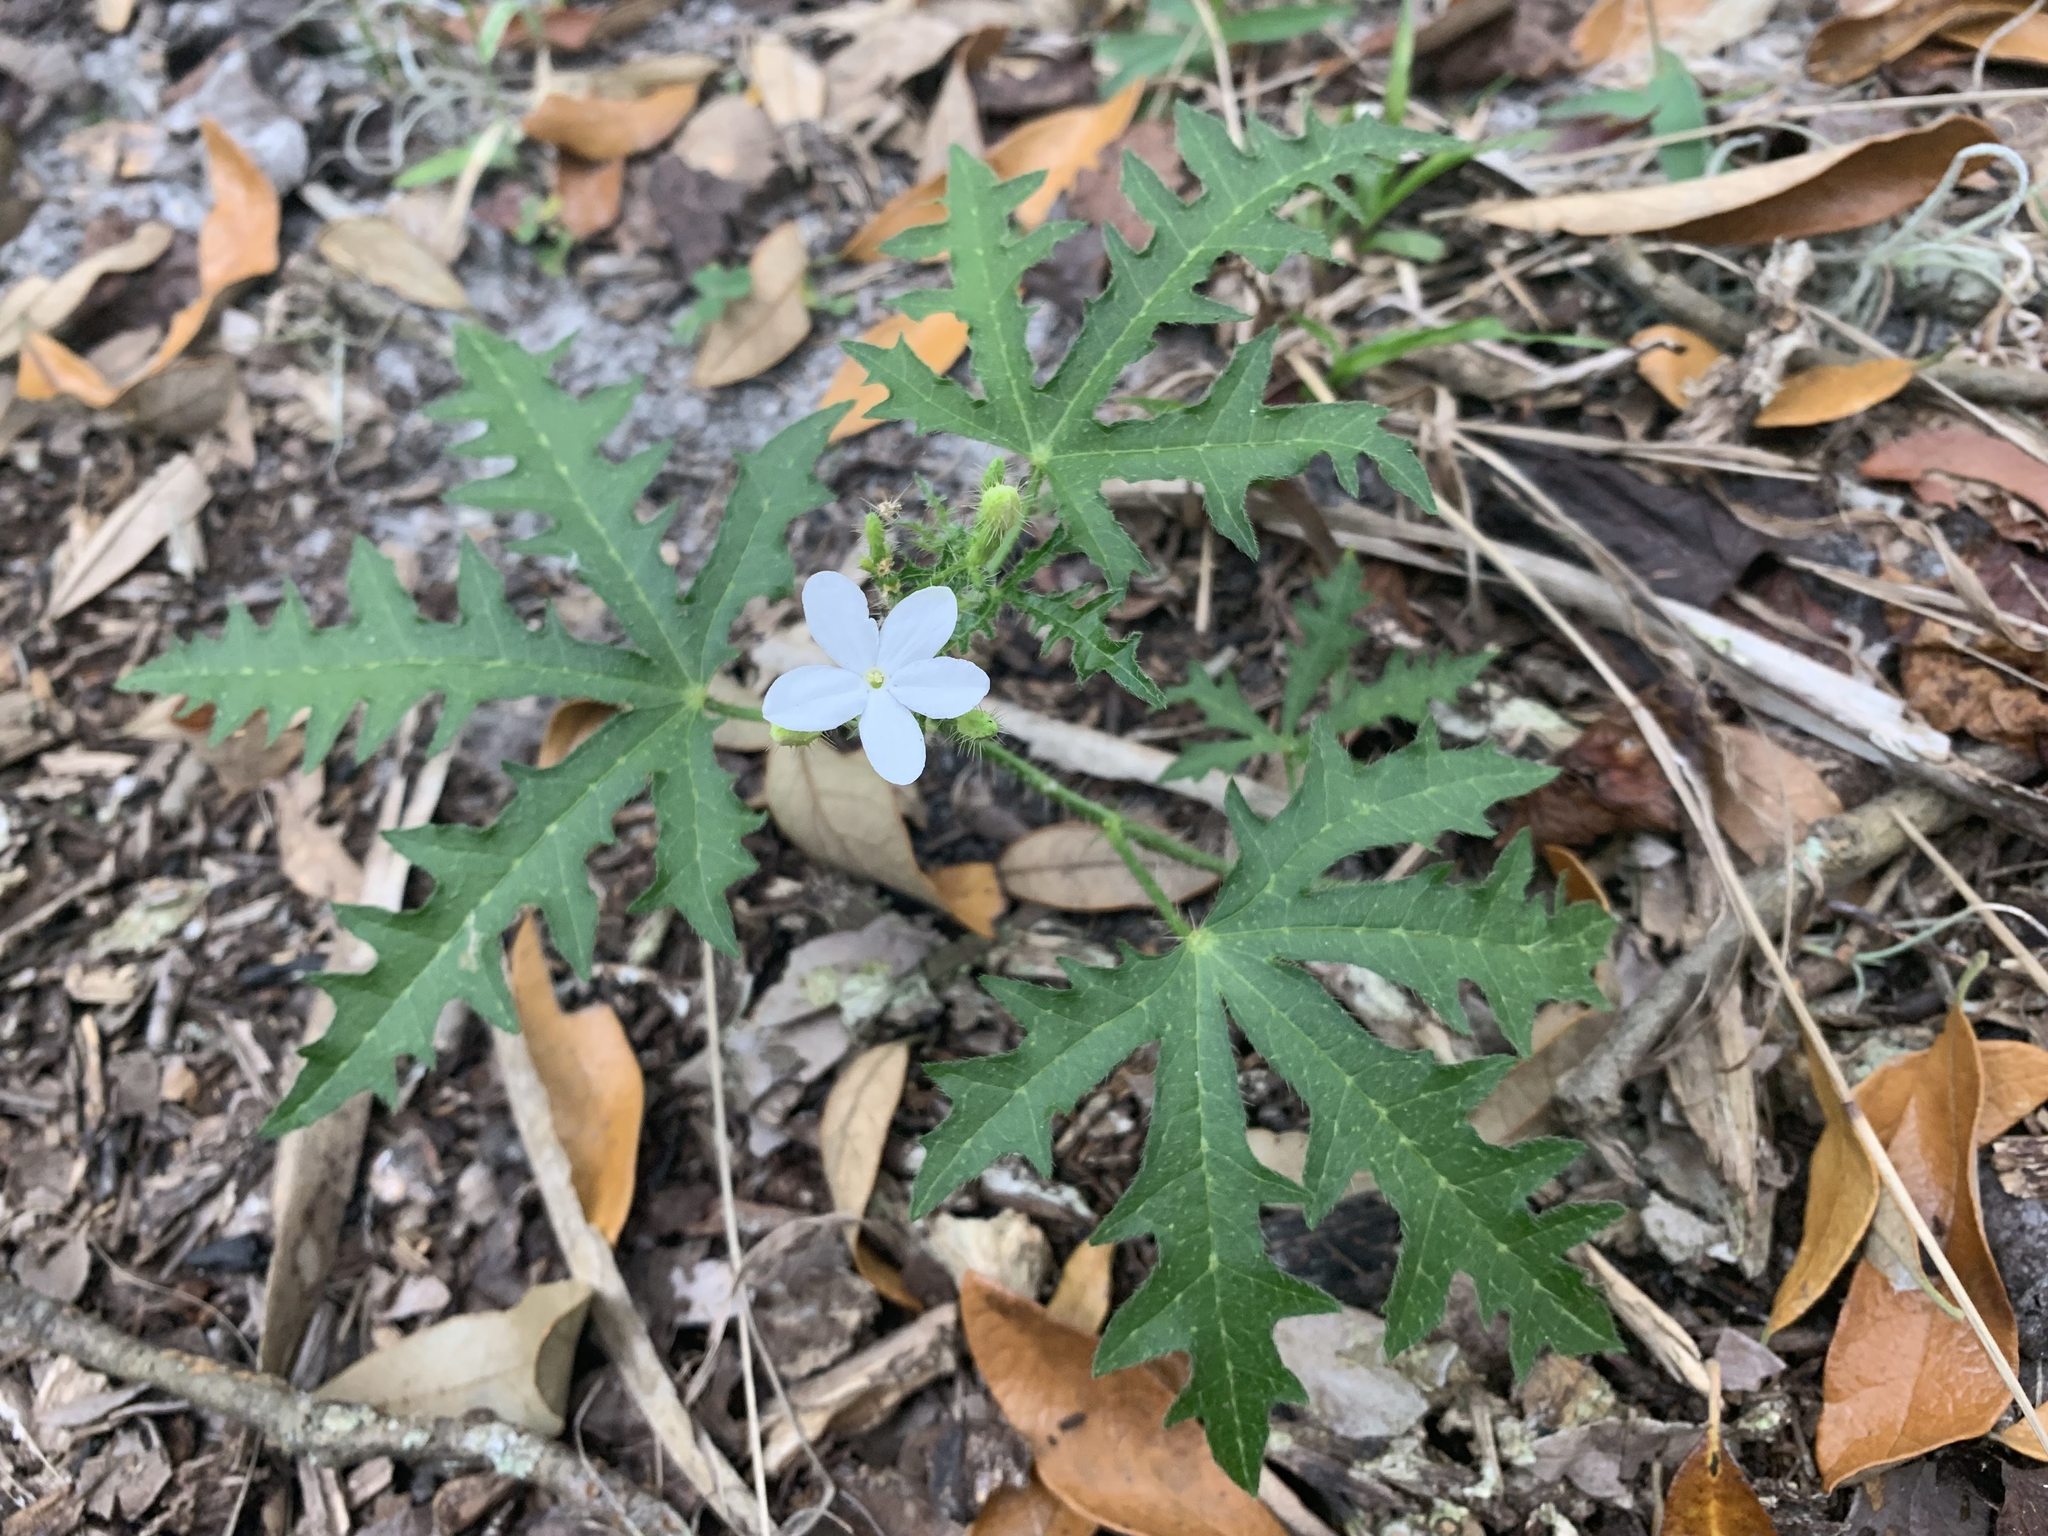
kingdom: Plantae
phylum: Tracheophyta
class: Magnoliopsida
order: Malpighiales
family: Euphorbiaceae
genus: Cnidoscolus
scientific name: Cnidoscolus stimulosus
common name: Bull-nettle
